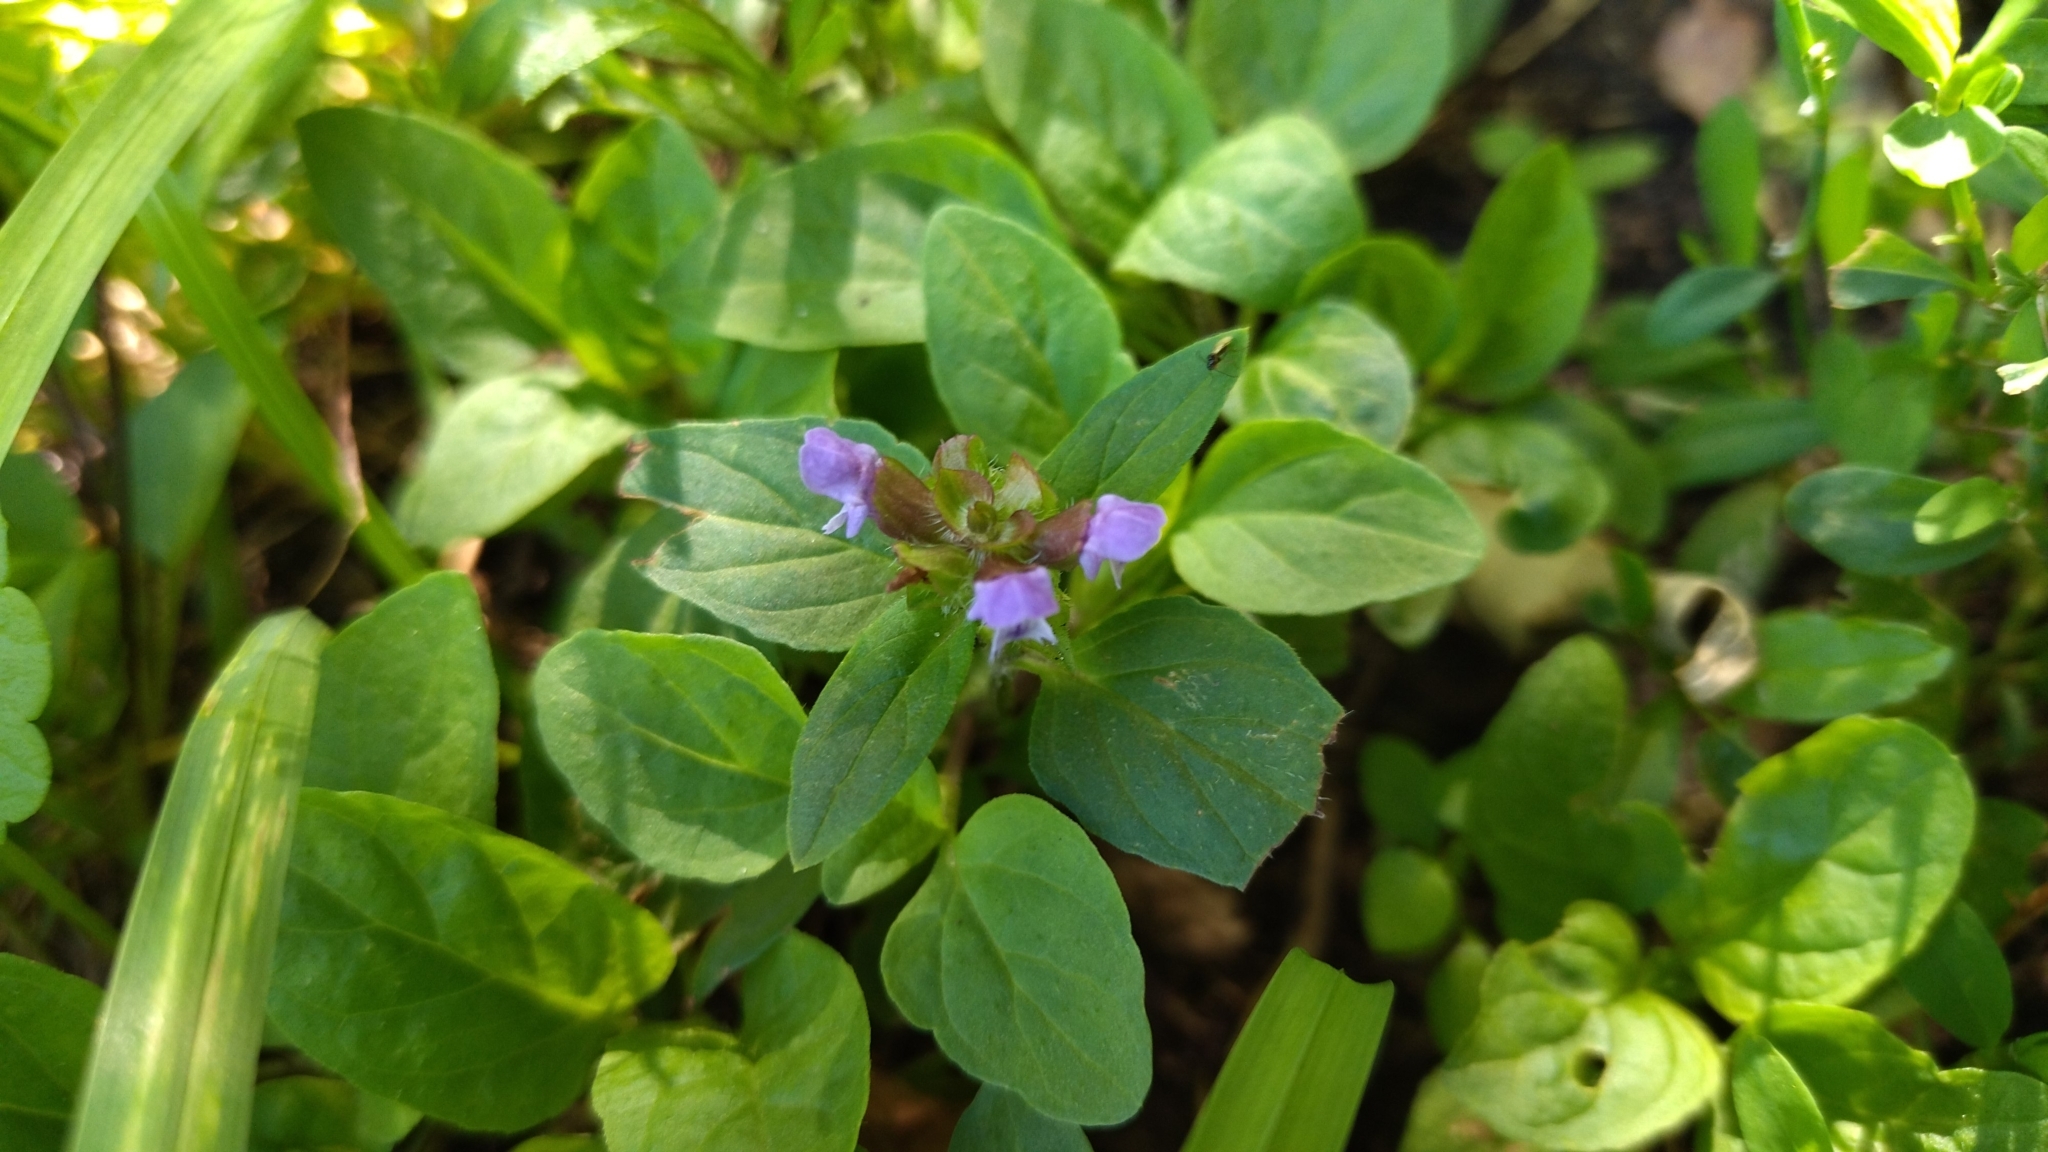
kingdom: Plantae
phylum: Tracheophyta
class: Magnoliopsida
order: Lamiales
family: Lamiaceae
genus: Prunella
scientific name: Prunella vulgaris
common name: Heal-all
